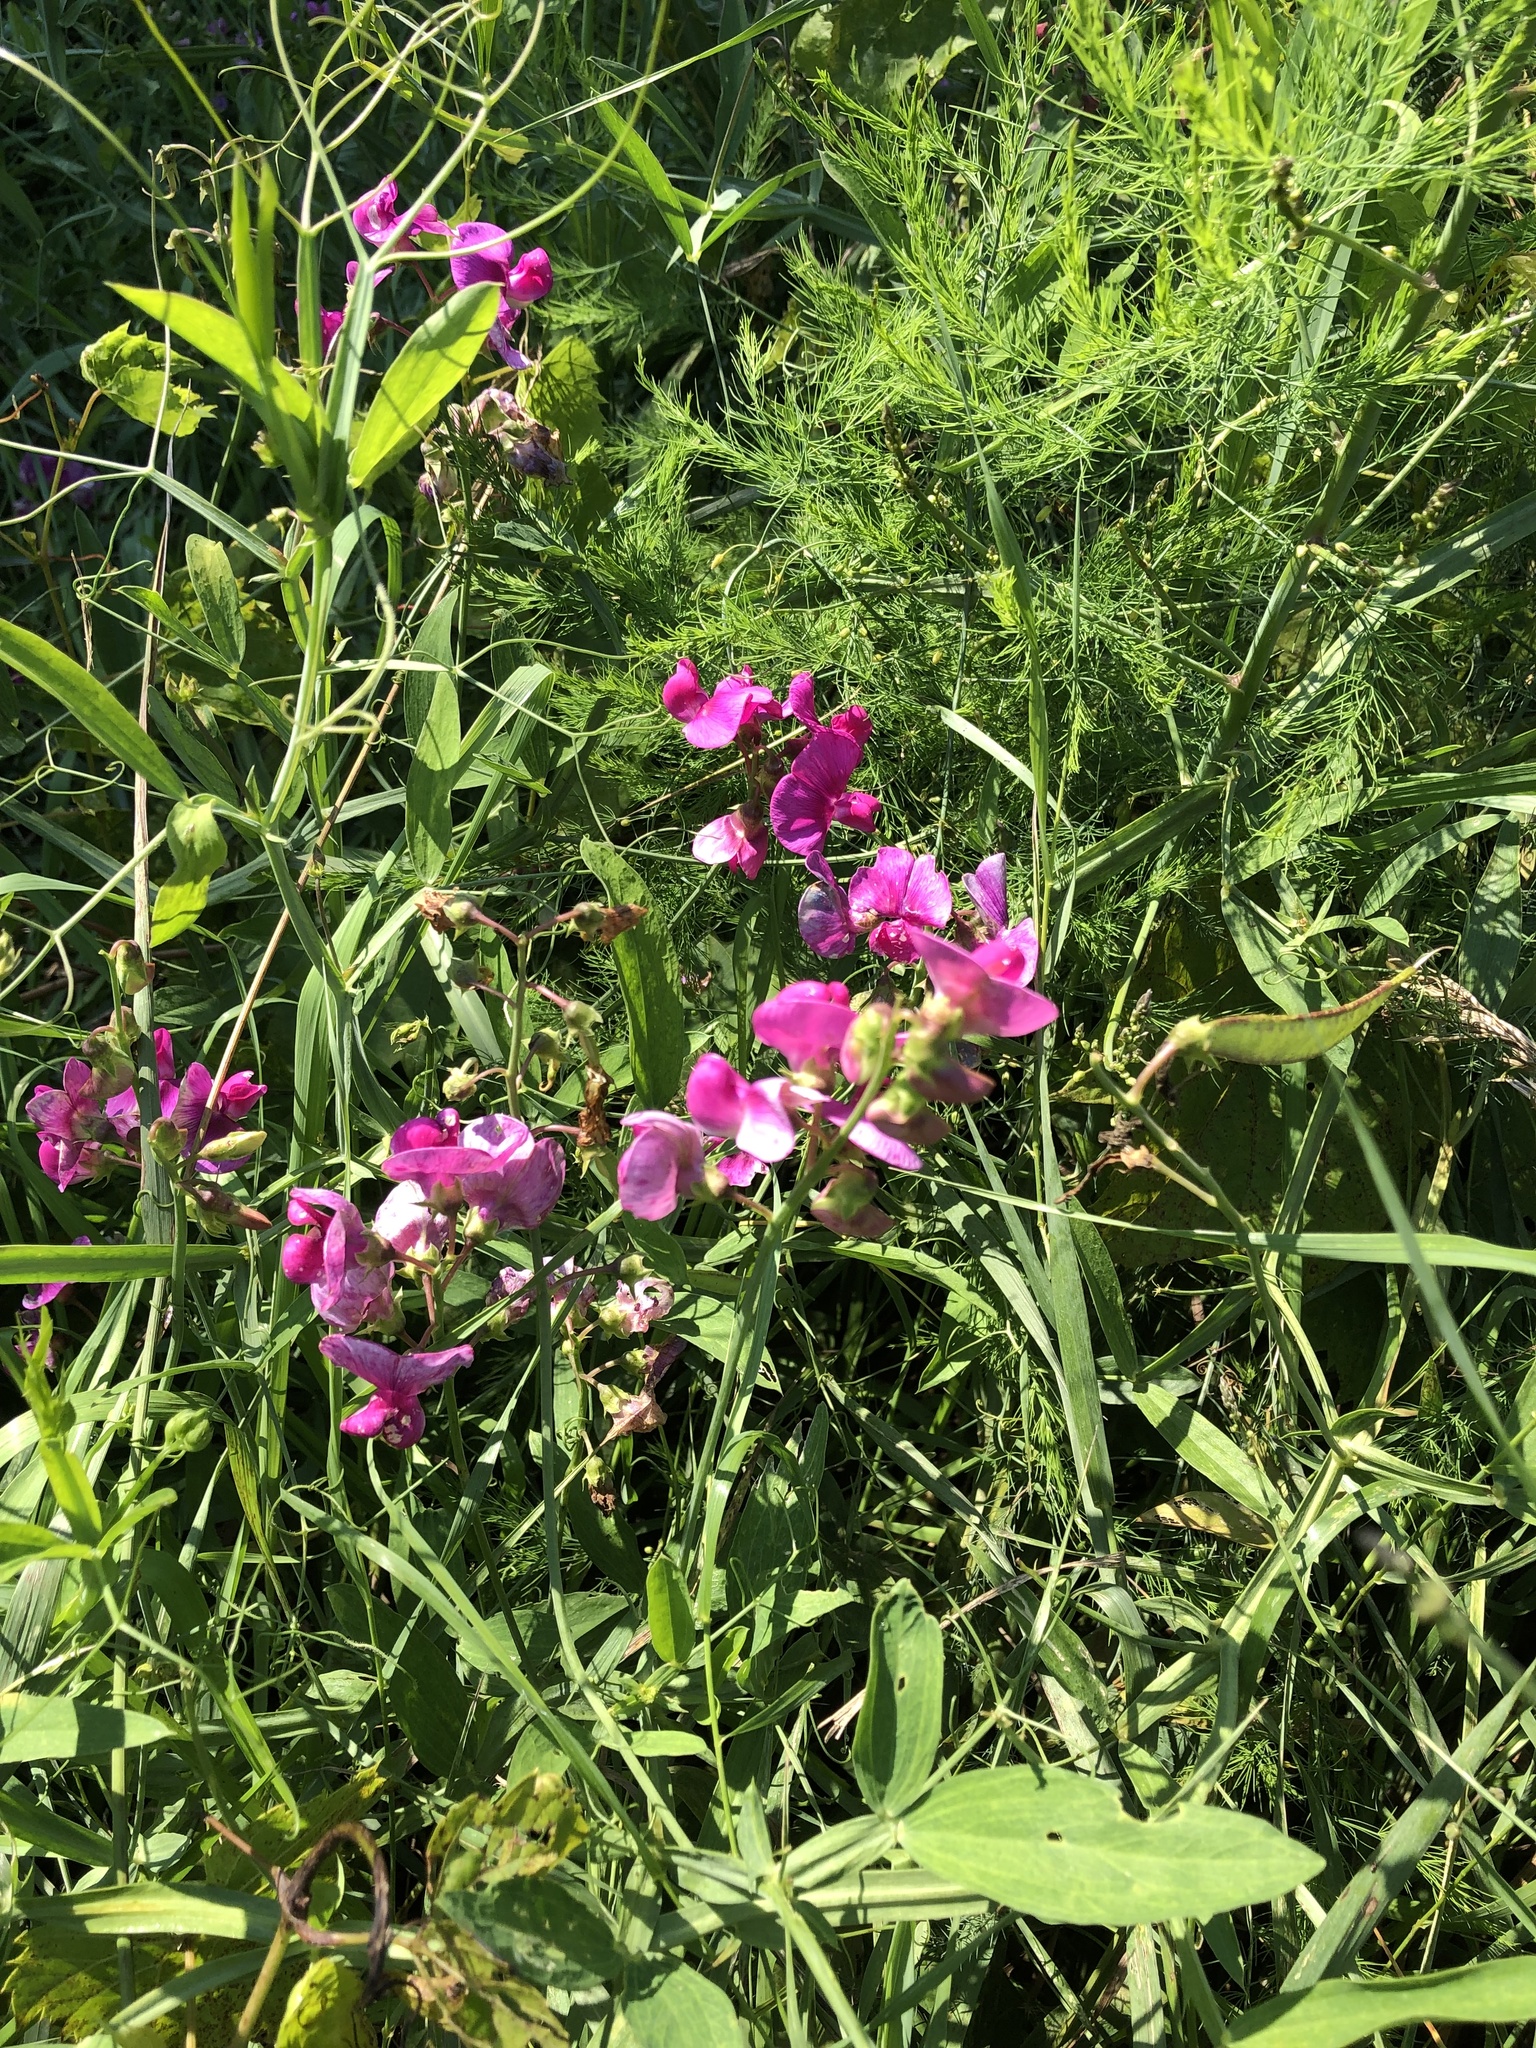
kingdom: Plantae
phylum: Tracheophyta
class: Magnoliopsida
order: Fabales
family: Fabaceae
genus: Lathyrus
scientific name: Lathyrus latifolius
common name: Perennial pea
